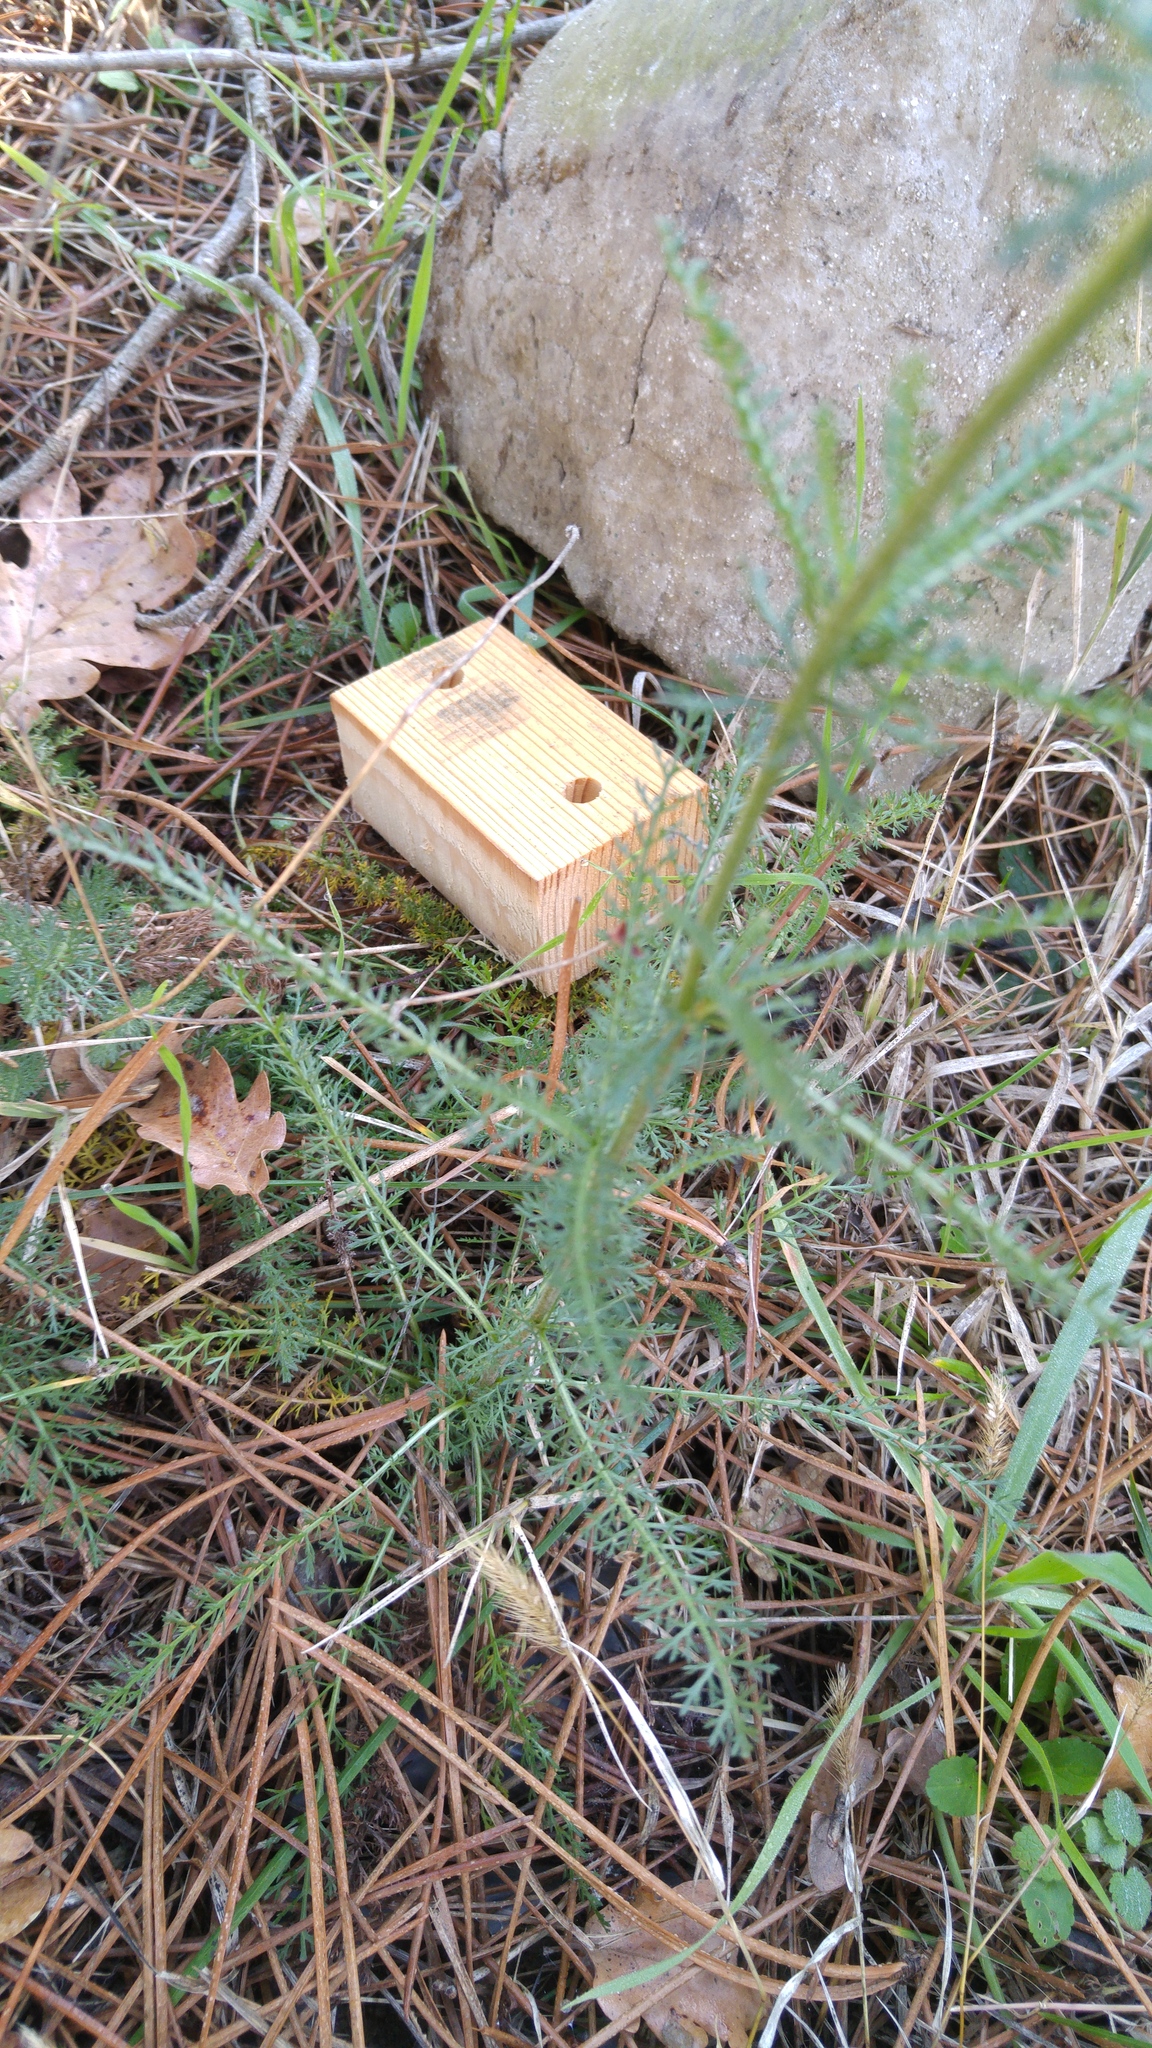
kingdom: Plantae
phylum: Tracheophyta
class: Magnoliopsida
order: Asterales
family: Asteraceae
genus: Achillea
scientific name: Achillea millefolium
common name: Yarrow
